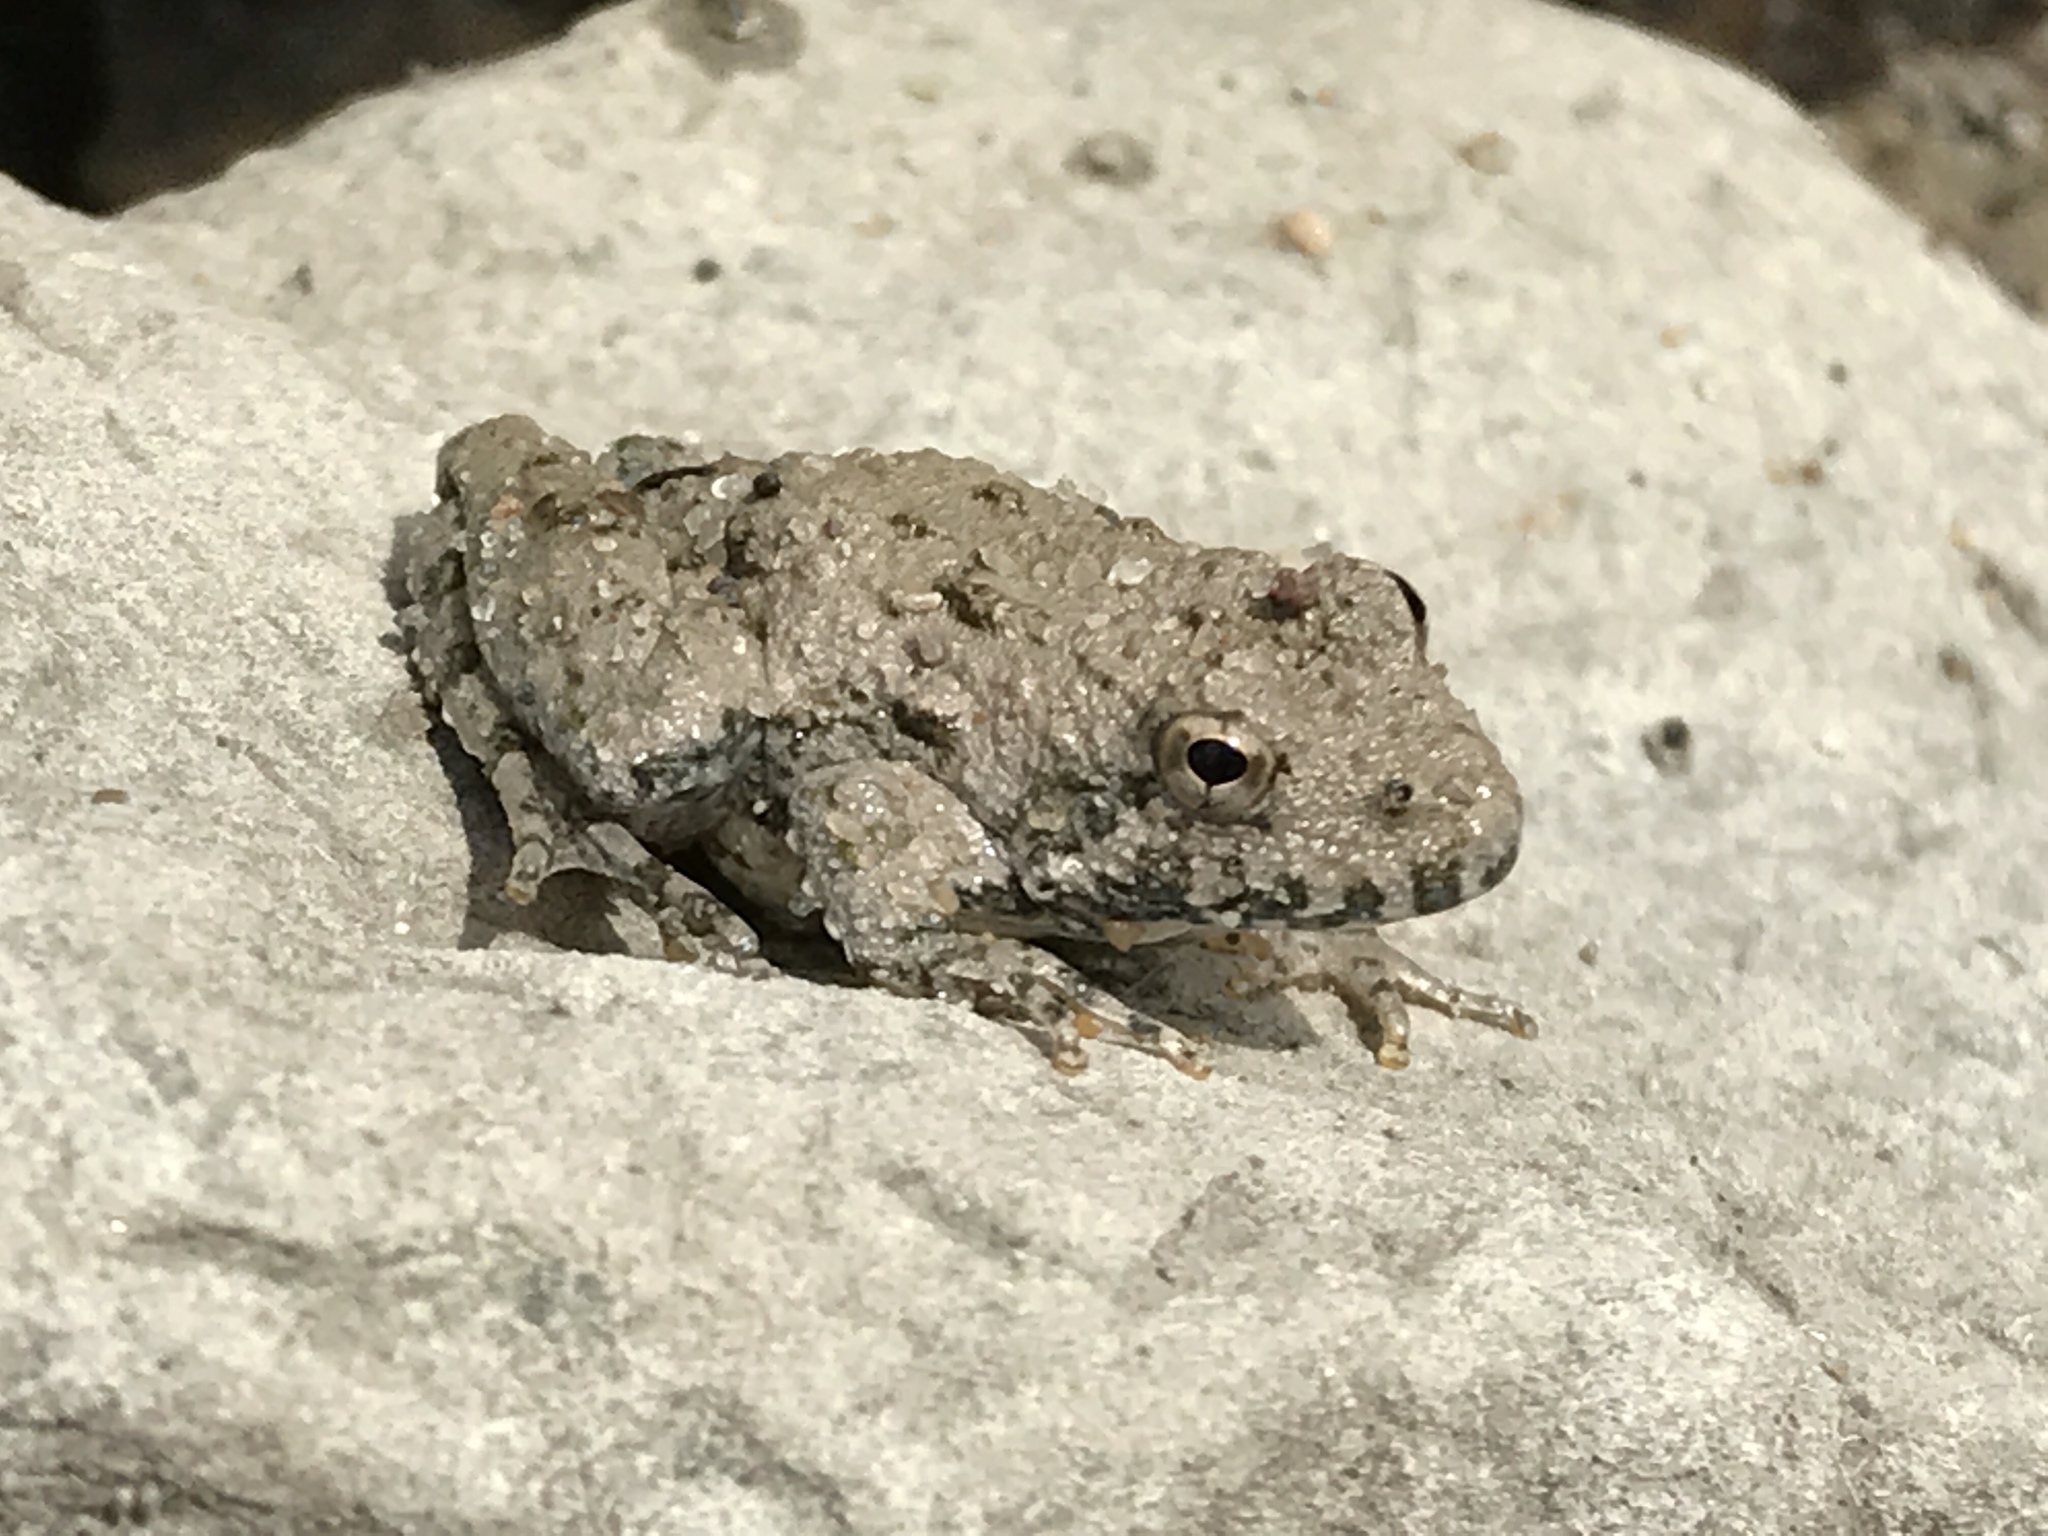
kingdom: Animalia
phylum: Chordata
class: Amphibia
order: Anura
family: Hylidae
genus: Acris
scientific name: Acris blanchardi
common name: Blanchard's cricket frog
